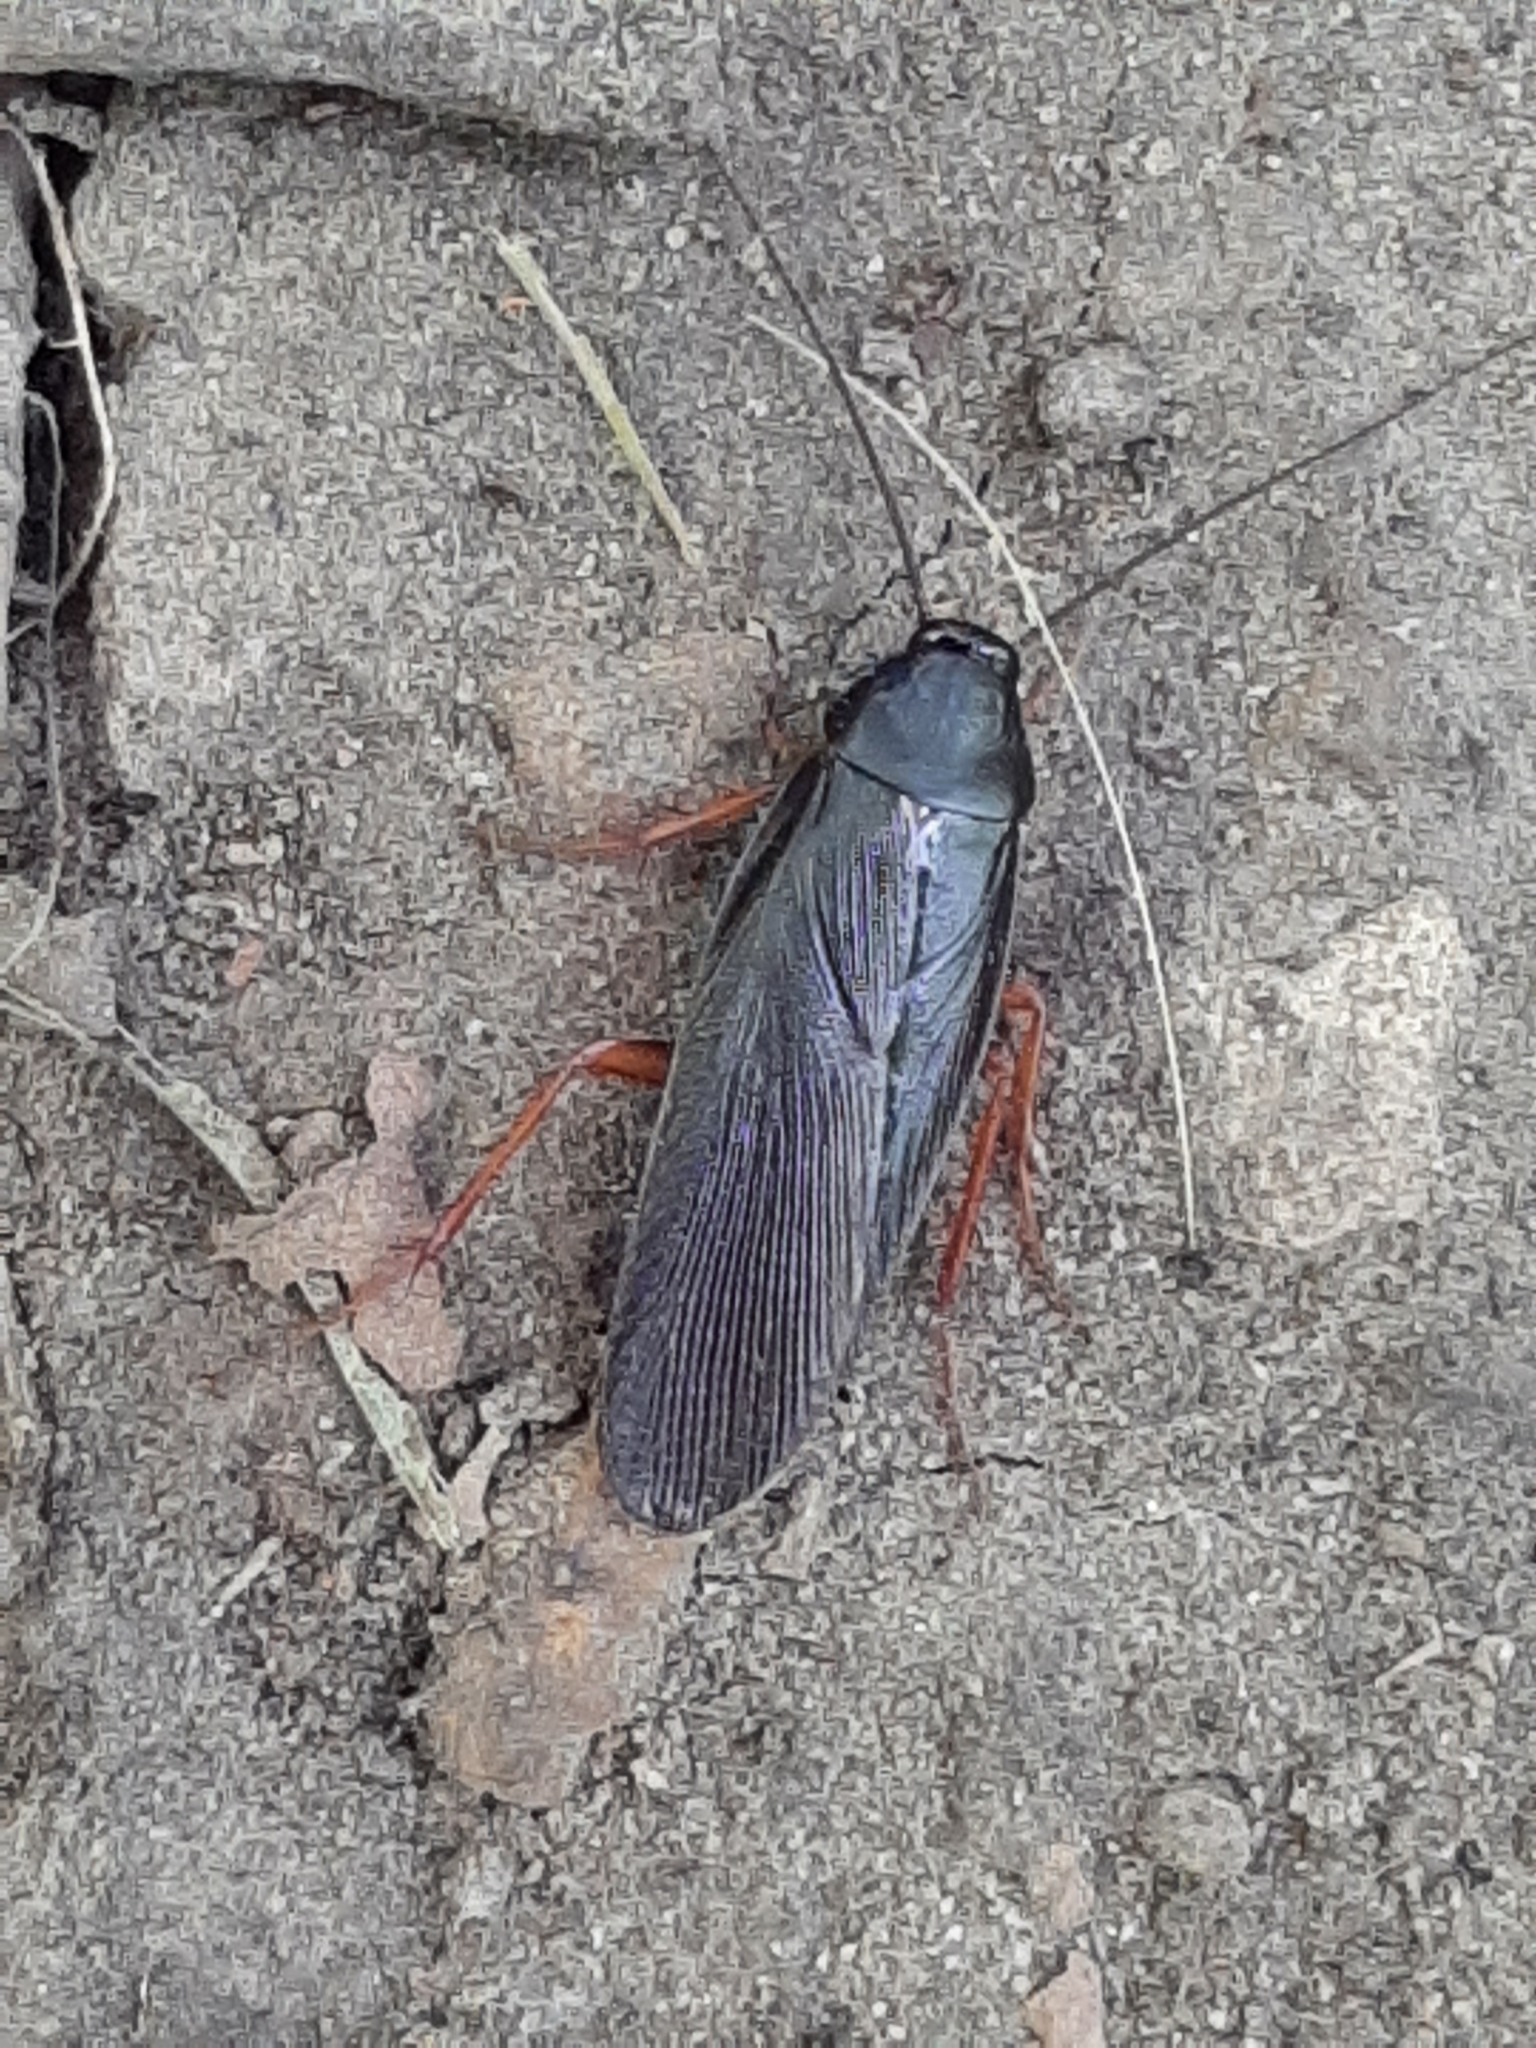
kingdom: Animalia
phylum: Arthropoda
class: Insecta
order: Blattodea
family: Ectobiidae
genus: Ischnoptera
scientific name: Ischnoptera deropeltiformis
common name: Dark wood cockroach
